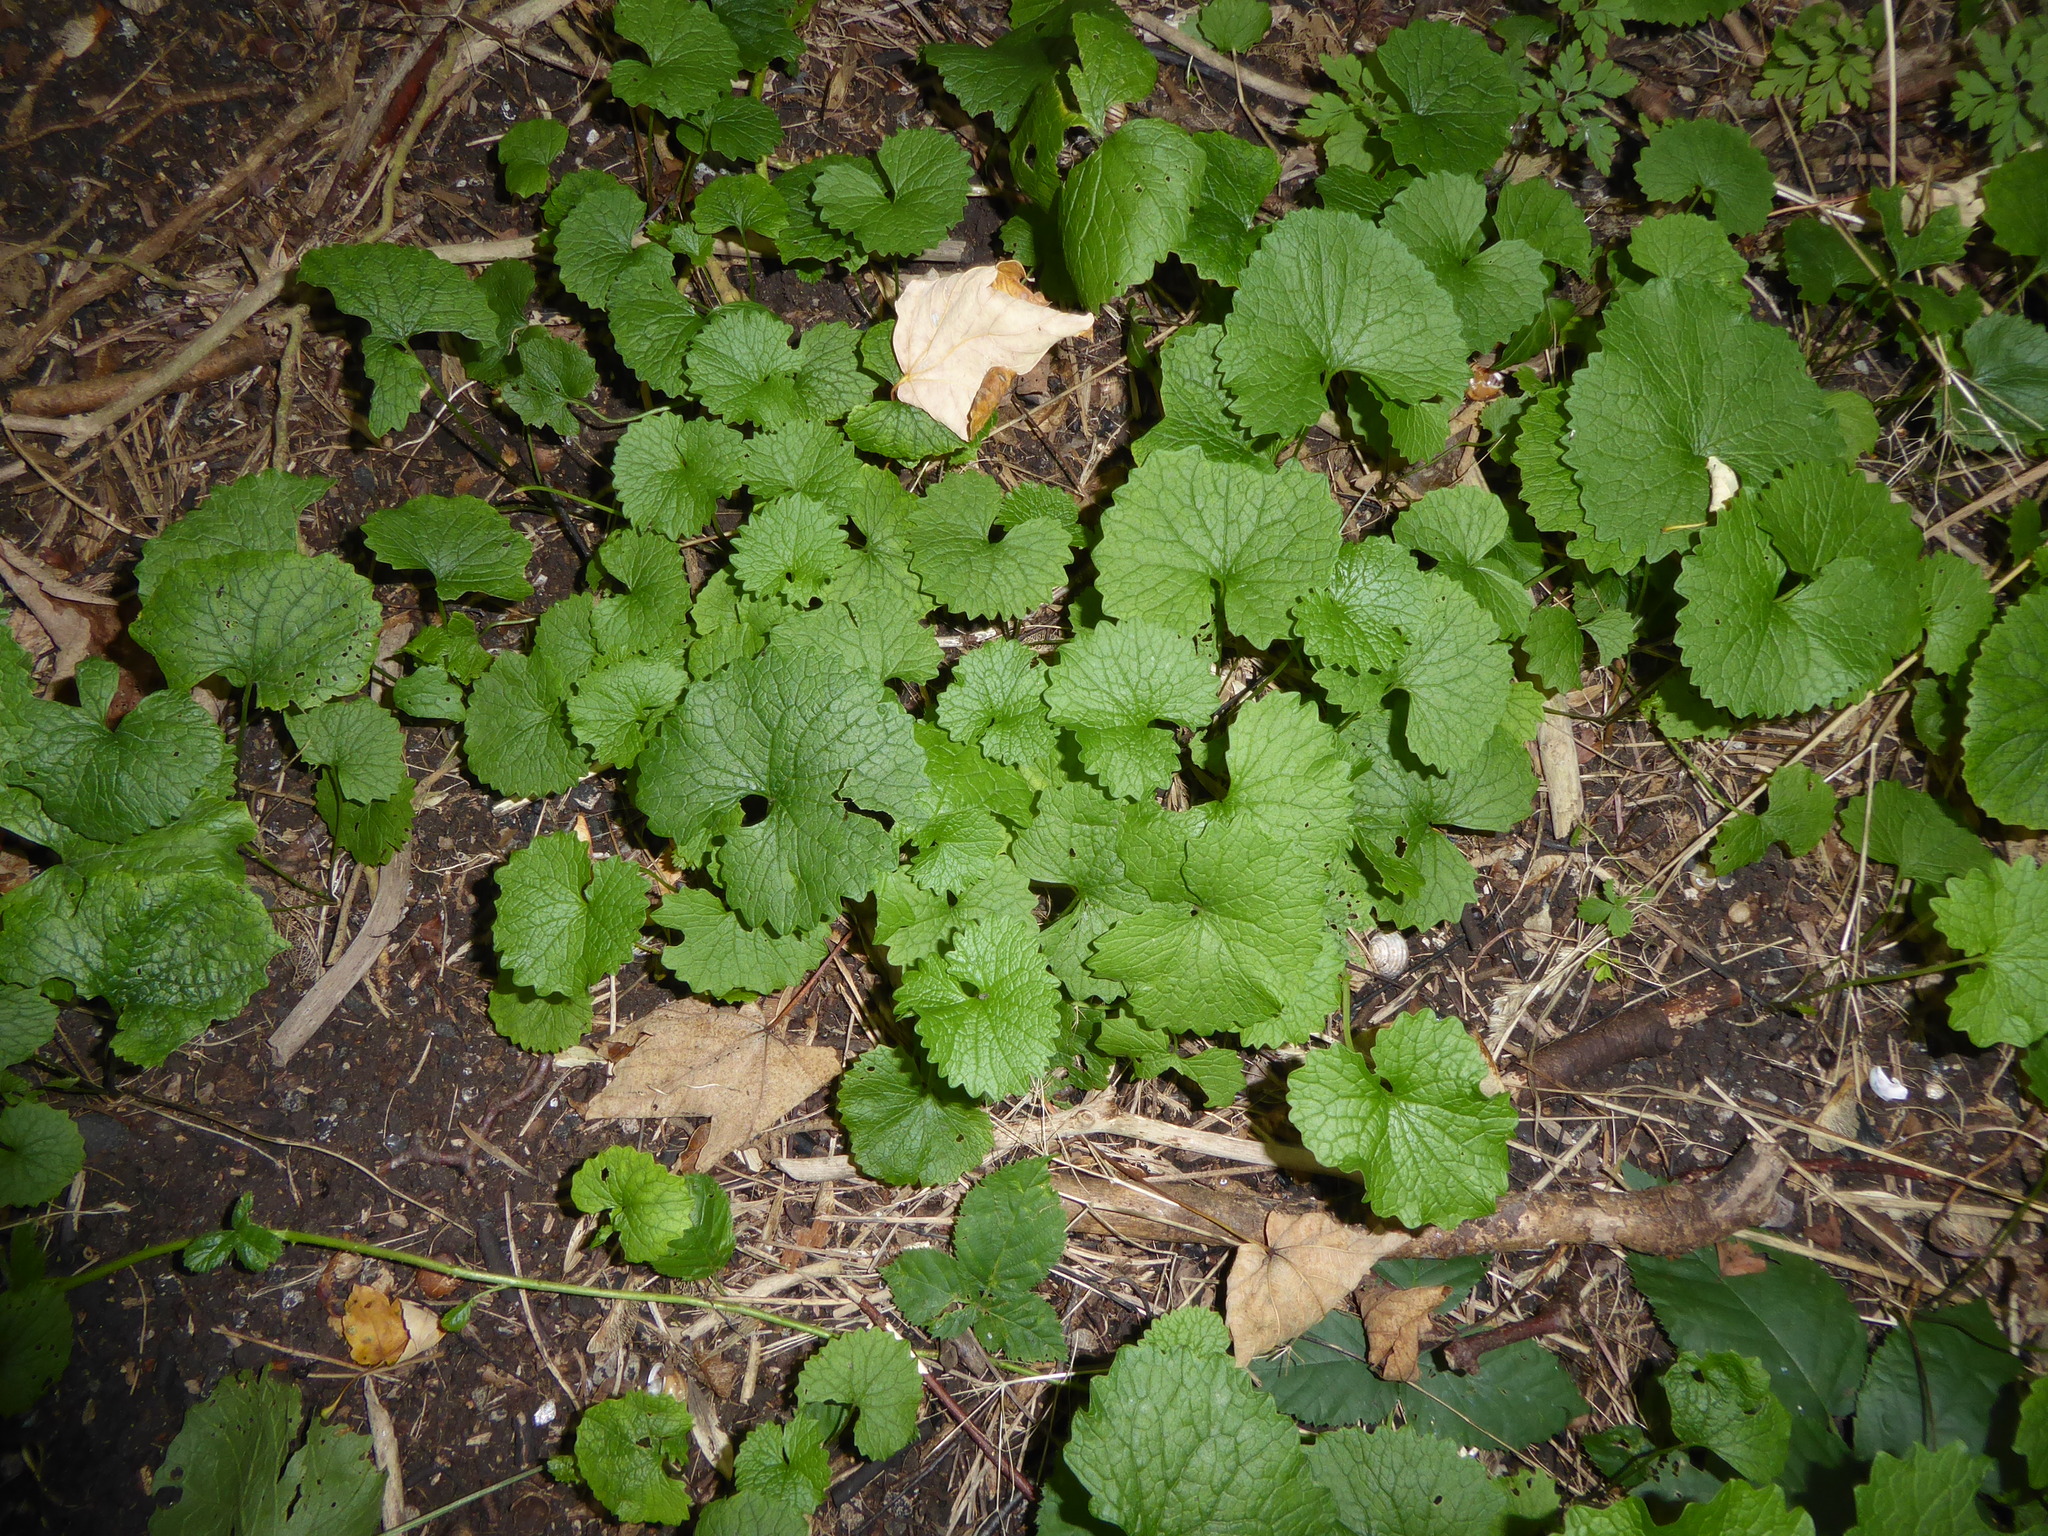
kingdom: Plantae
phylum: Tracheophyta
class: Magnoliopsida
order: Brassicales
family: Brassicaceae
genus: Alliaria
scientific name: Alliaria petiolata
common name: Garlic mustard
